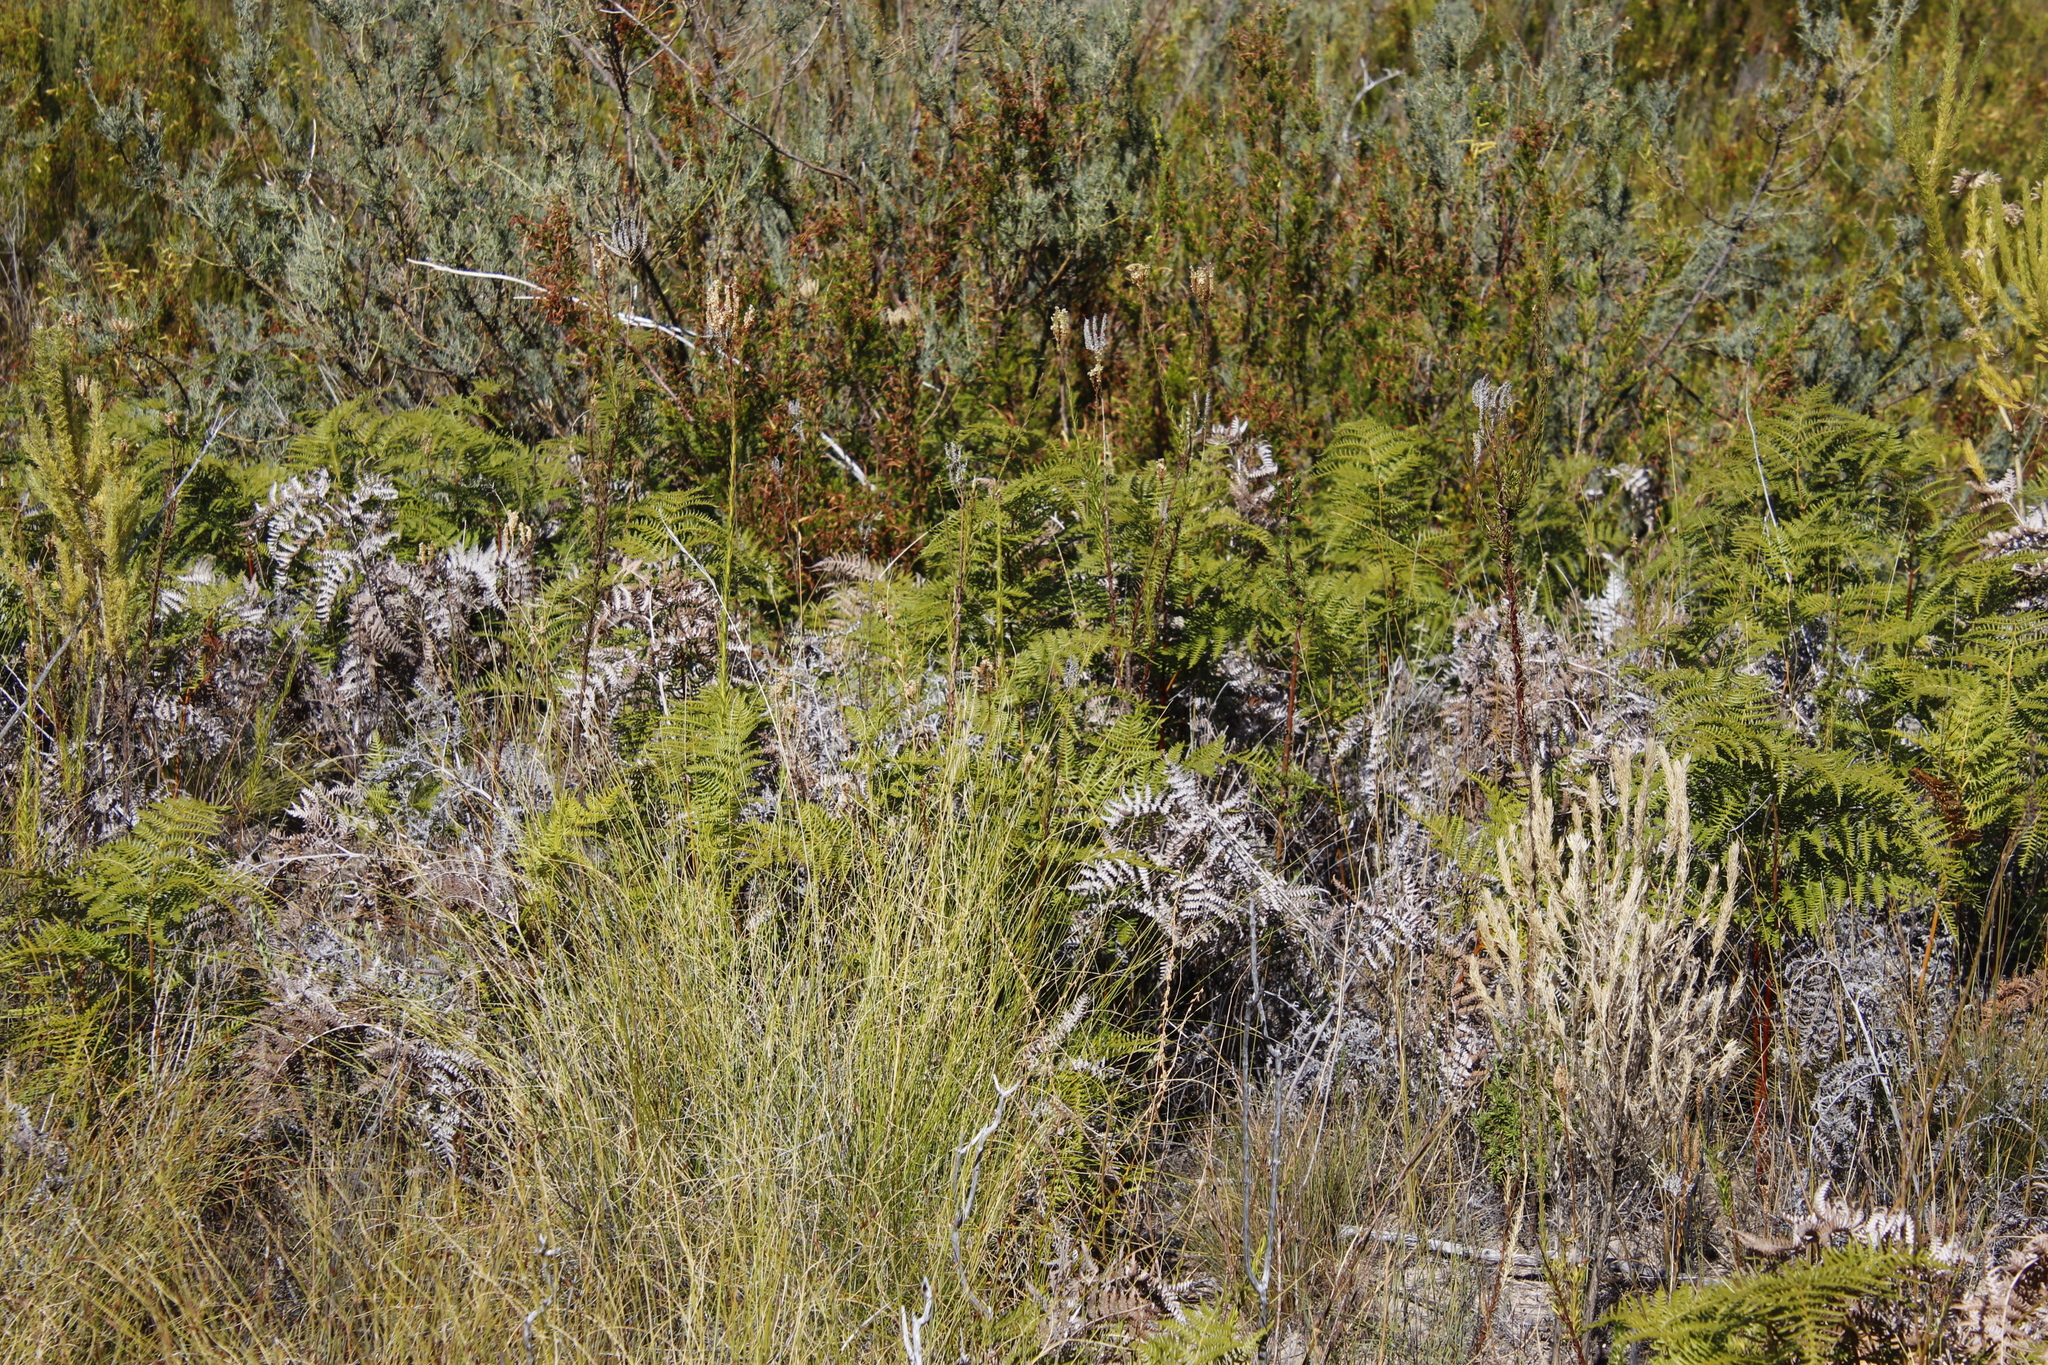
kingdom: Plantae
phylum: Tracheophyta
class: Polypodiopsida
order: Polypodiales
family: Dennstaedtiaceae
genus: Pteridium
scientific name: Pteridium aquilinum
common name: Bracken
